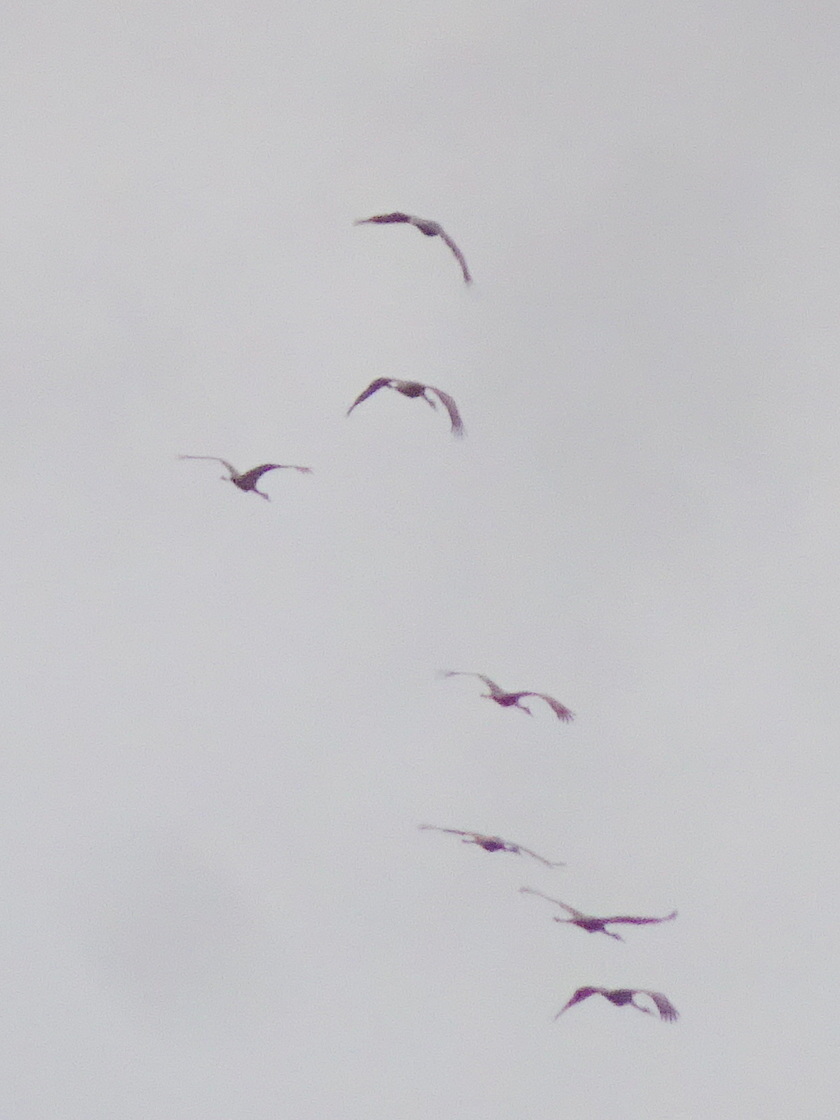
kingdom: Animalia
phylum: Chordata
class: Aves
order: Gruiformes
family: Gruidae
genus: Grus
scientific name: Grus canadensis
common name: Sandhill crane
